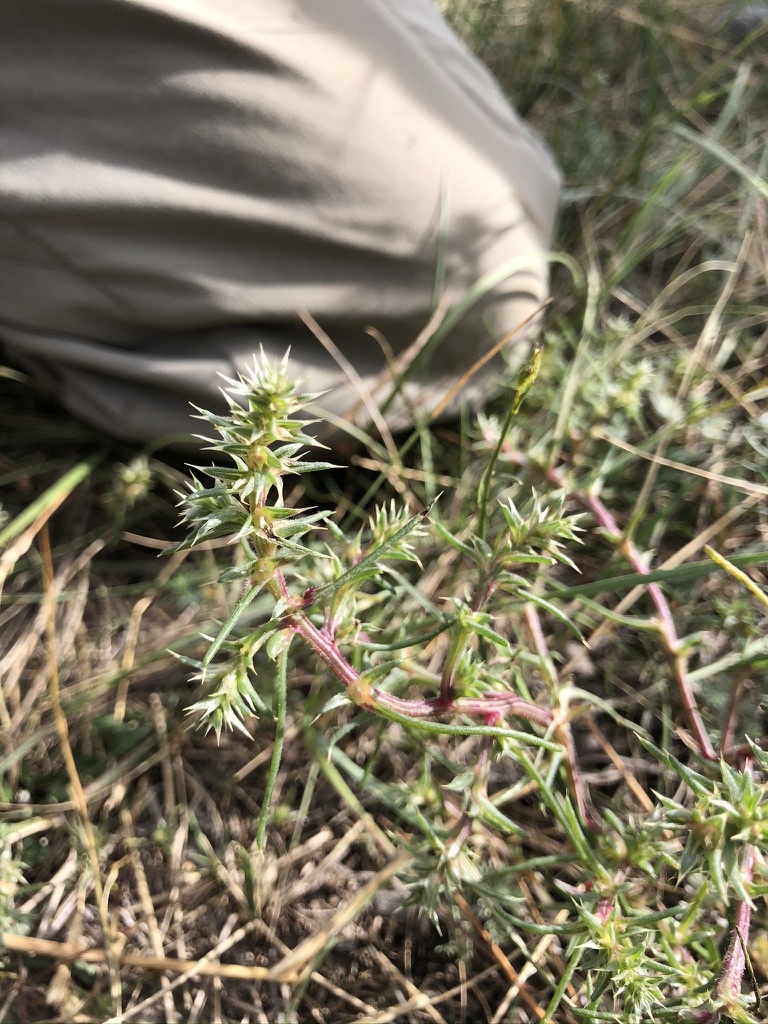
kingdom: Plantae
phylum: Tracheophyta
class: Magnoliopsida
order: Caryophyllales
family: Amaranthaceae
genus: Salsola
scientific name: Salsola tragus
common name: Prickly russian thistle
